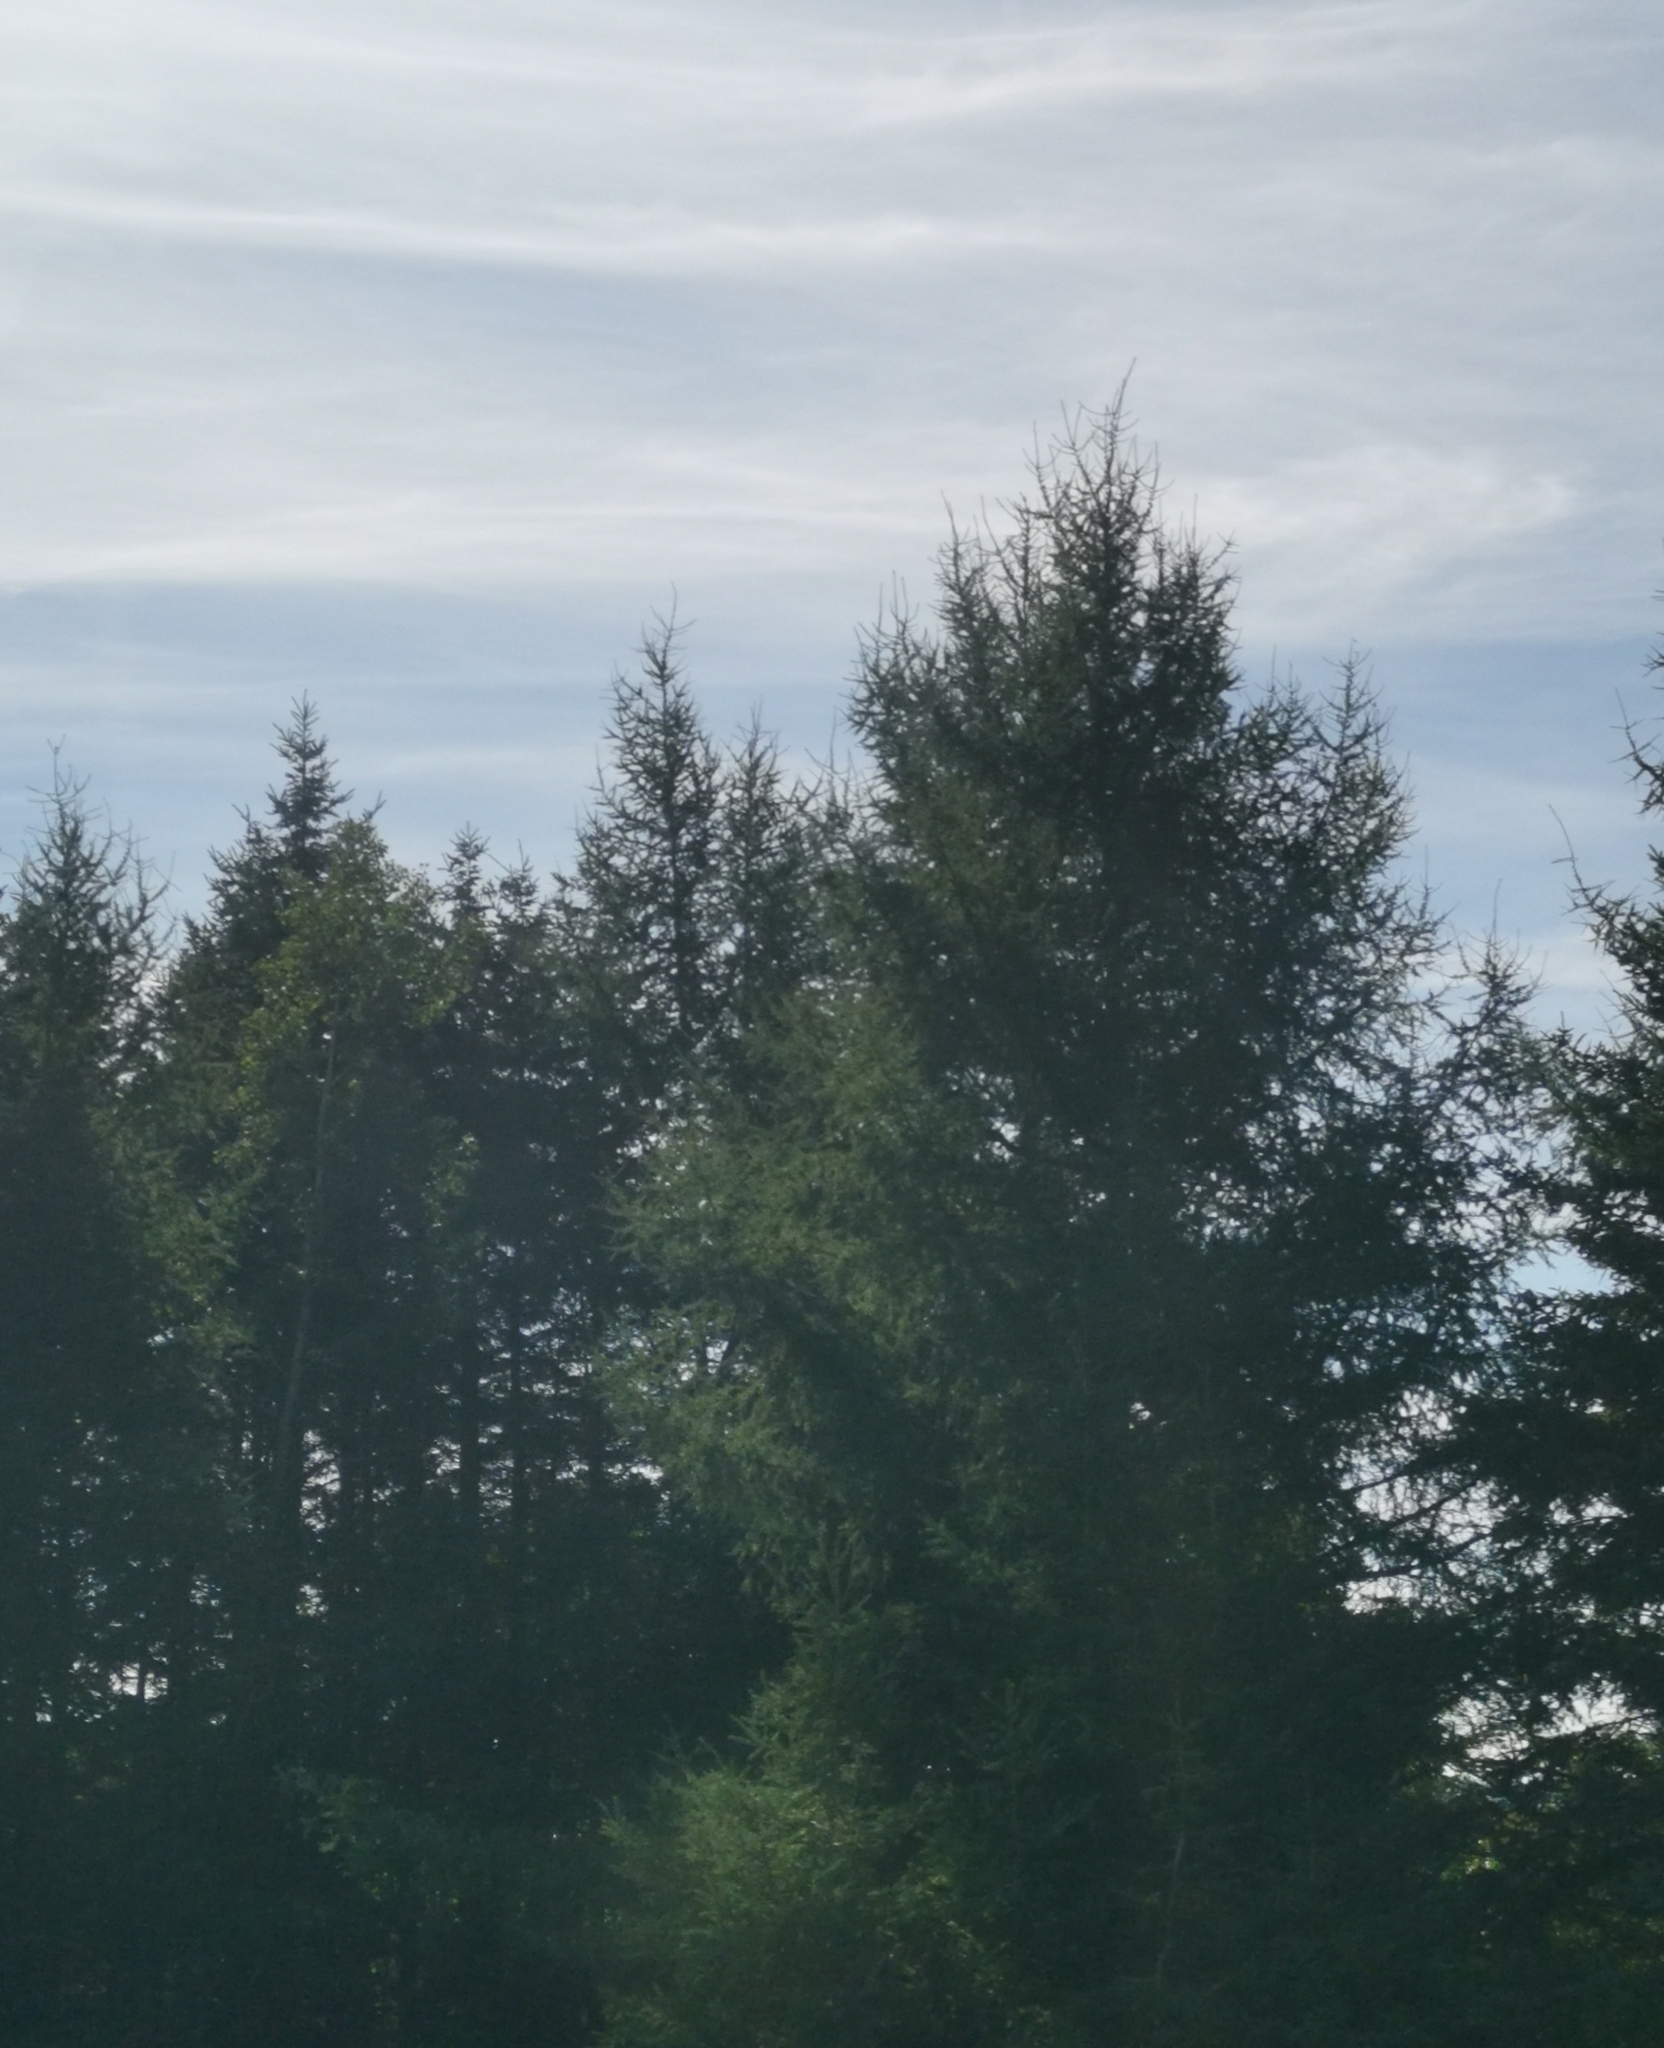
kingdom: Plantae
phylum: Tracheophyta
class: Pinopsida
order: Pinales
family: Pinaceae
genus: Larix
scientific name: Larix laricina
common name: American larch
